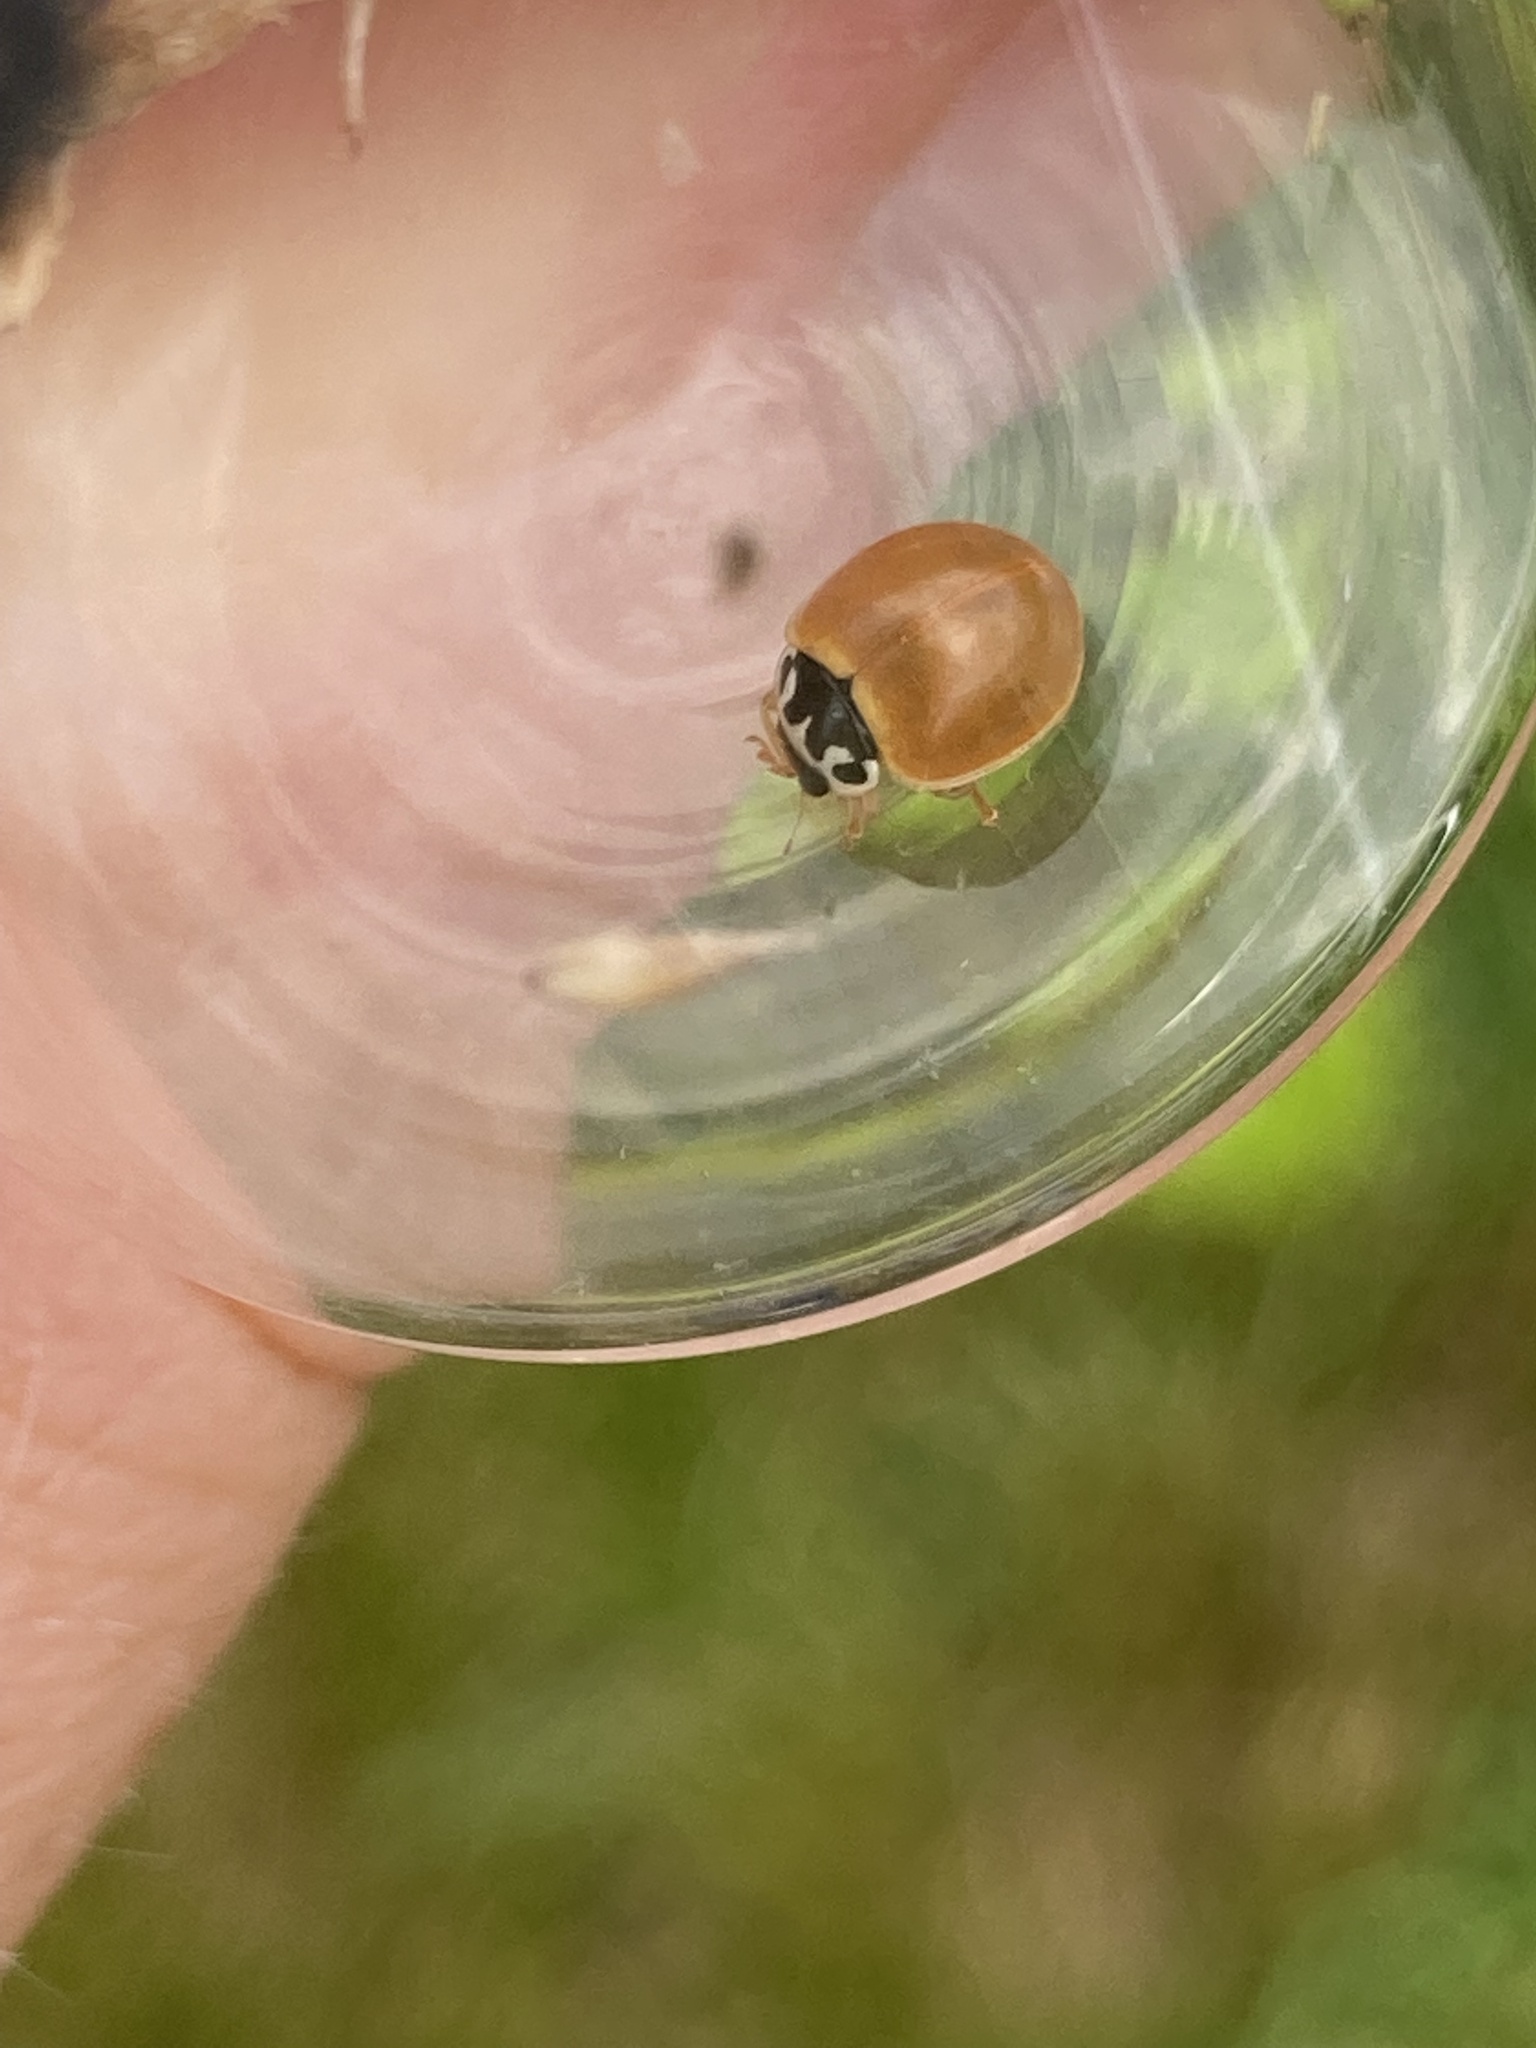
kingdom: Animalia
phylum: Arthropoda
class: Insecta
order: Coleoptera
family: Coccinellidae
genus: Cycloneda
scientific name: Cycloneda munda
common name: Polished lady beetle
